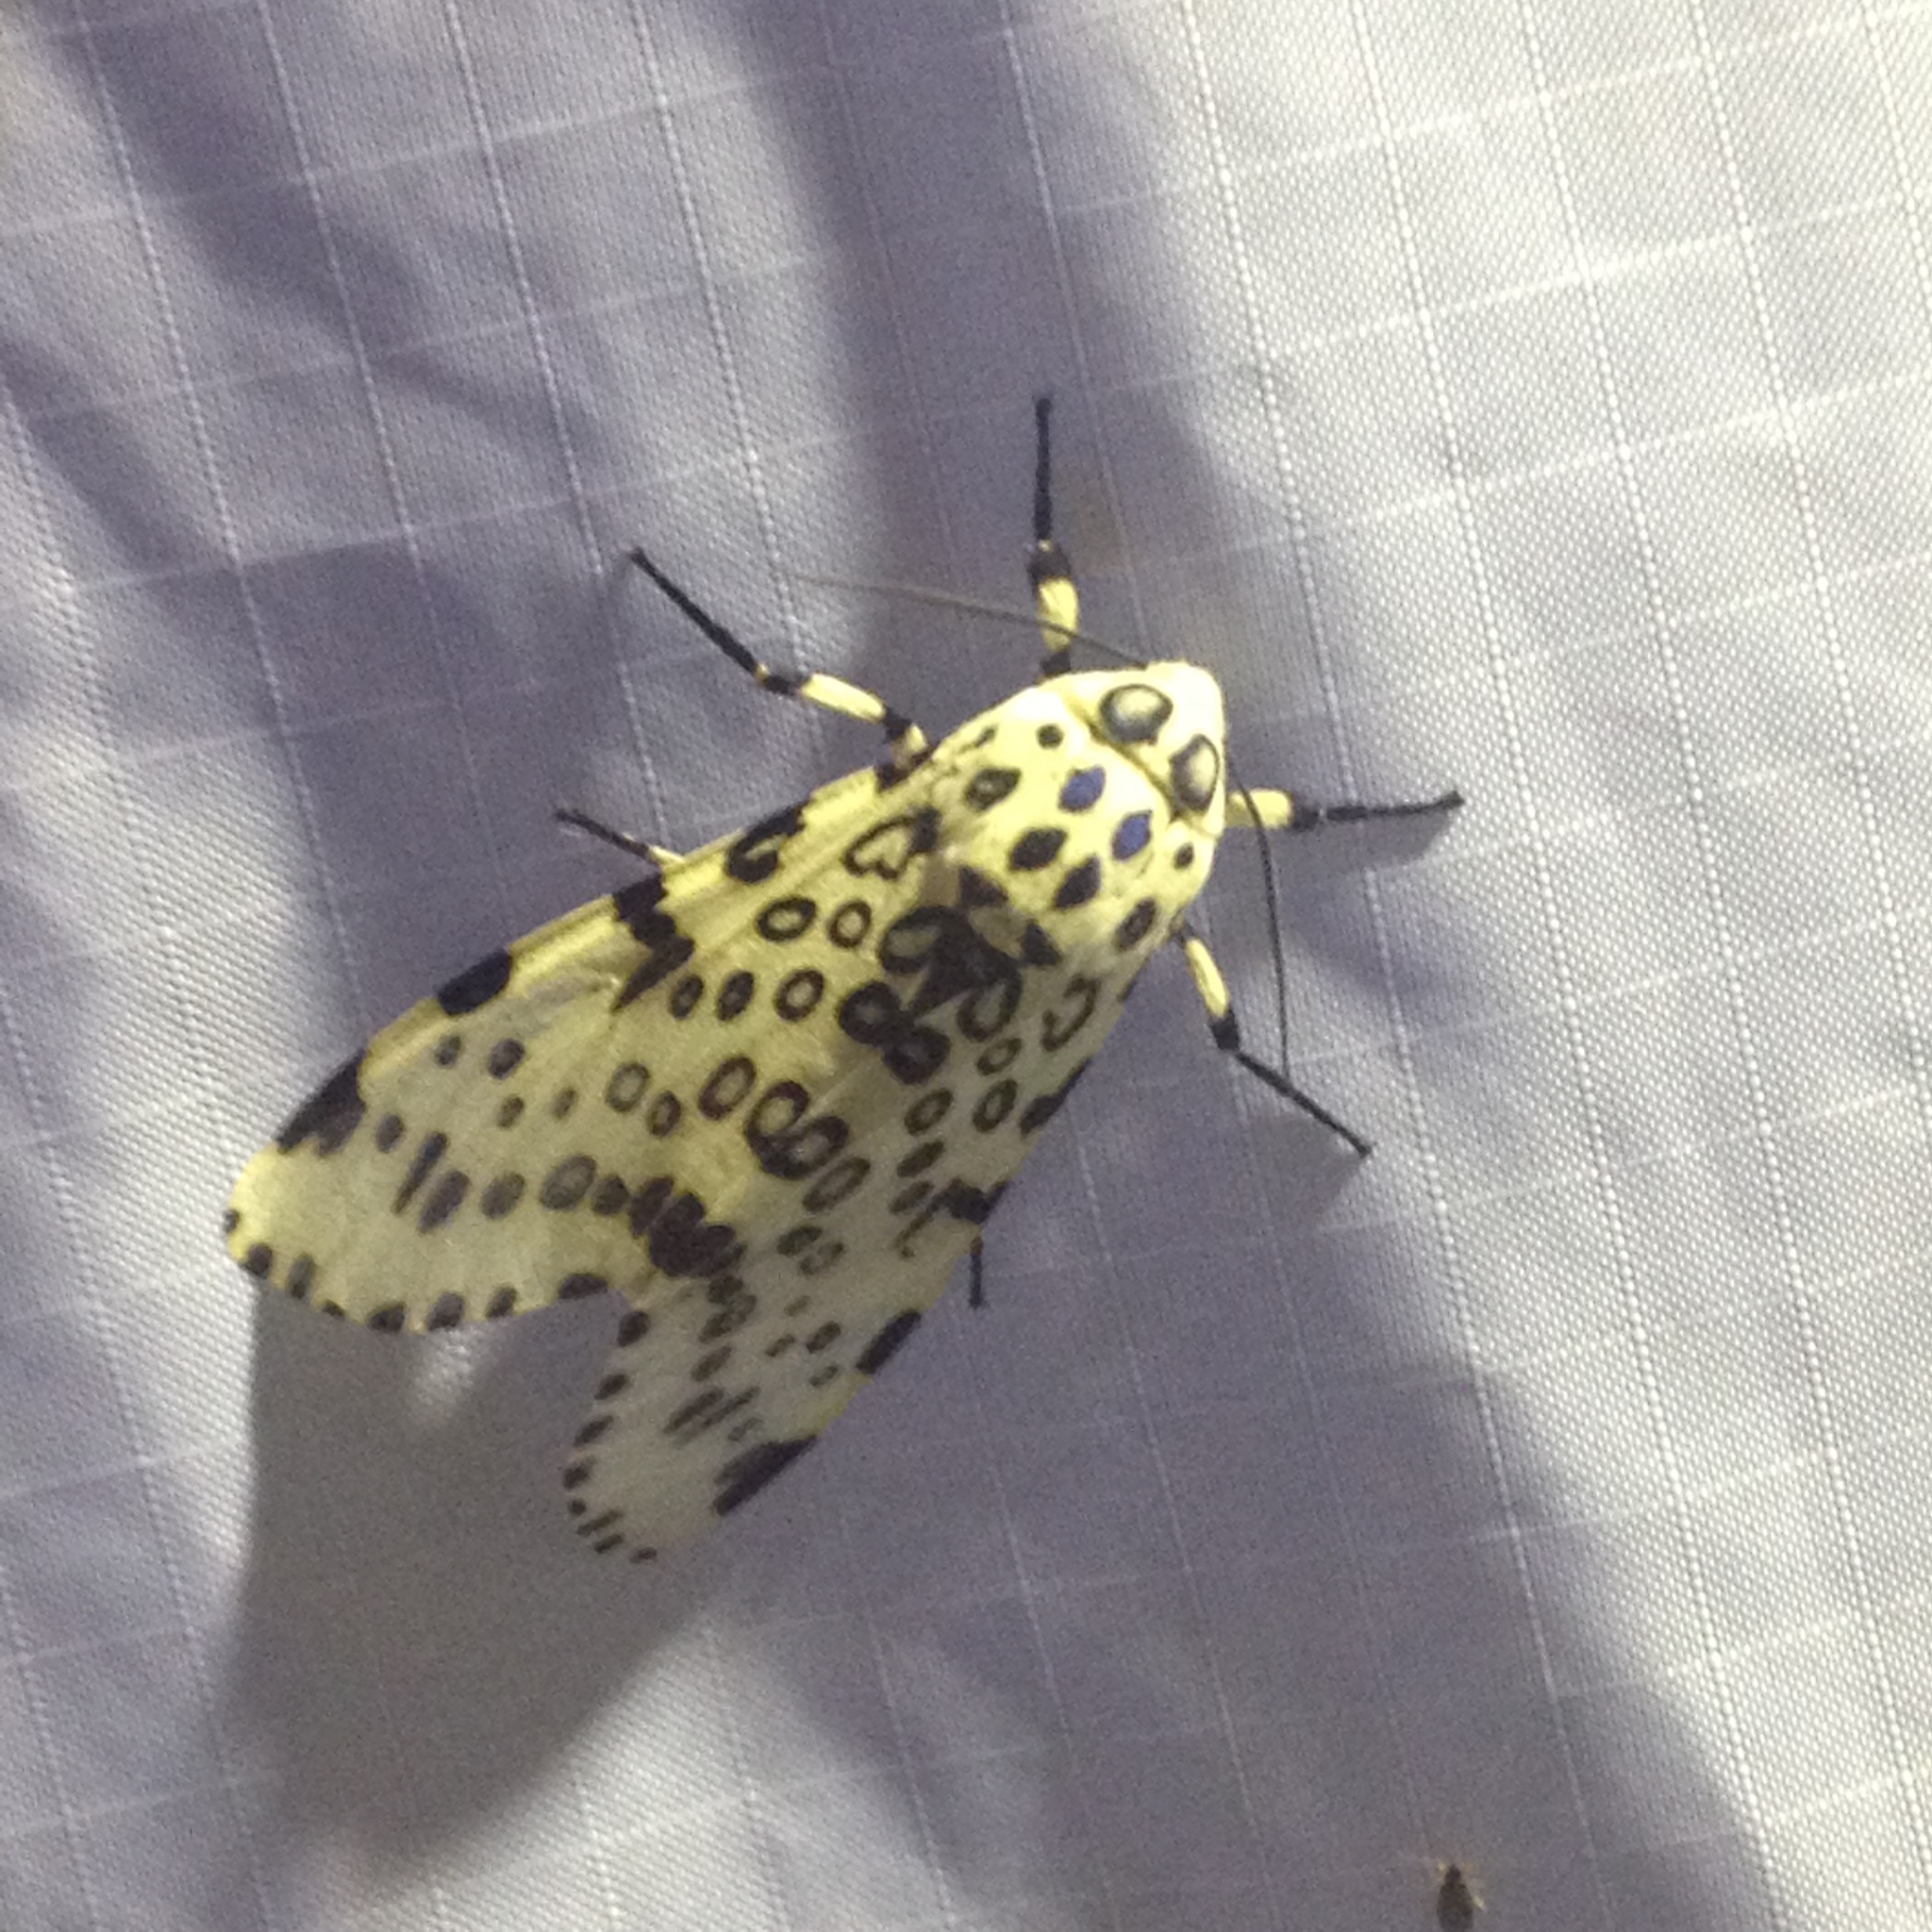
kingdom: Animalia
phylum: Arthropoda
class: Insecta
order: Lepidoptera
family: Erebidae
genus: Hypercompe
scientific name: Hypercompe scribonia
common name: Giant leopard moth
